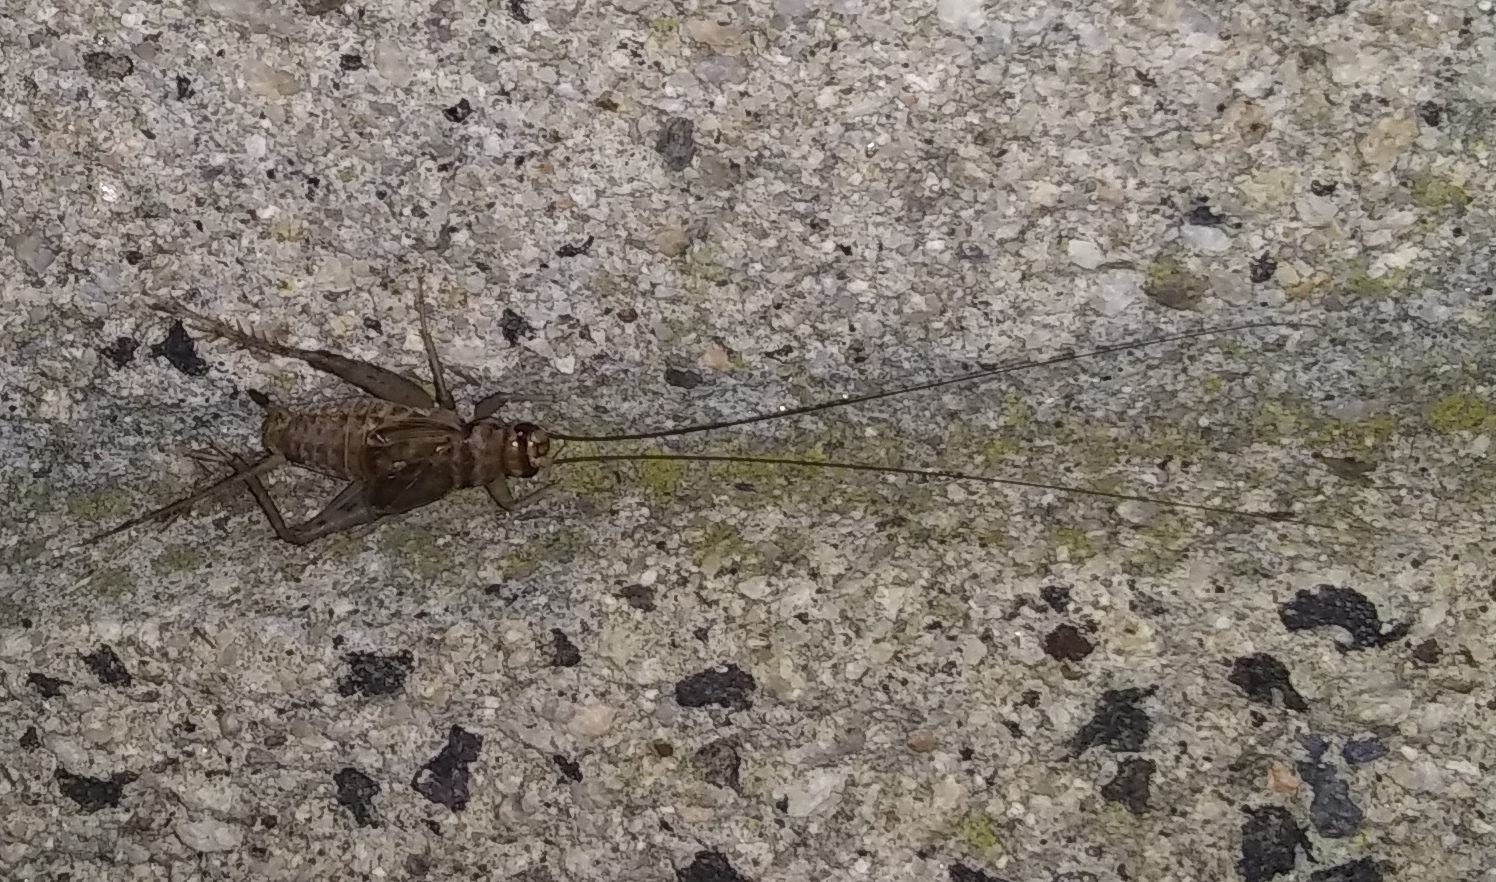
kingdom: Animalia
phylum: Arthropoda
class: Insecta
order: Orthoptera
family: Gryllidae
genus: Gryllodes
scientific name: Gryllodes sigillatus
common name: Tropical house cricket
